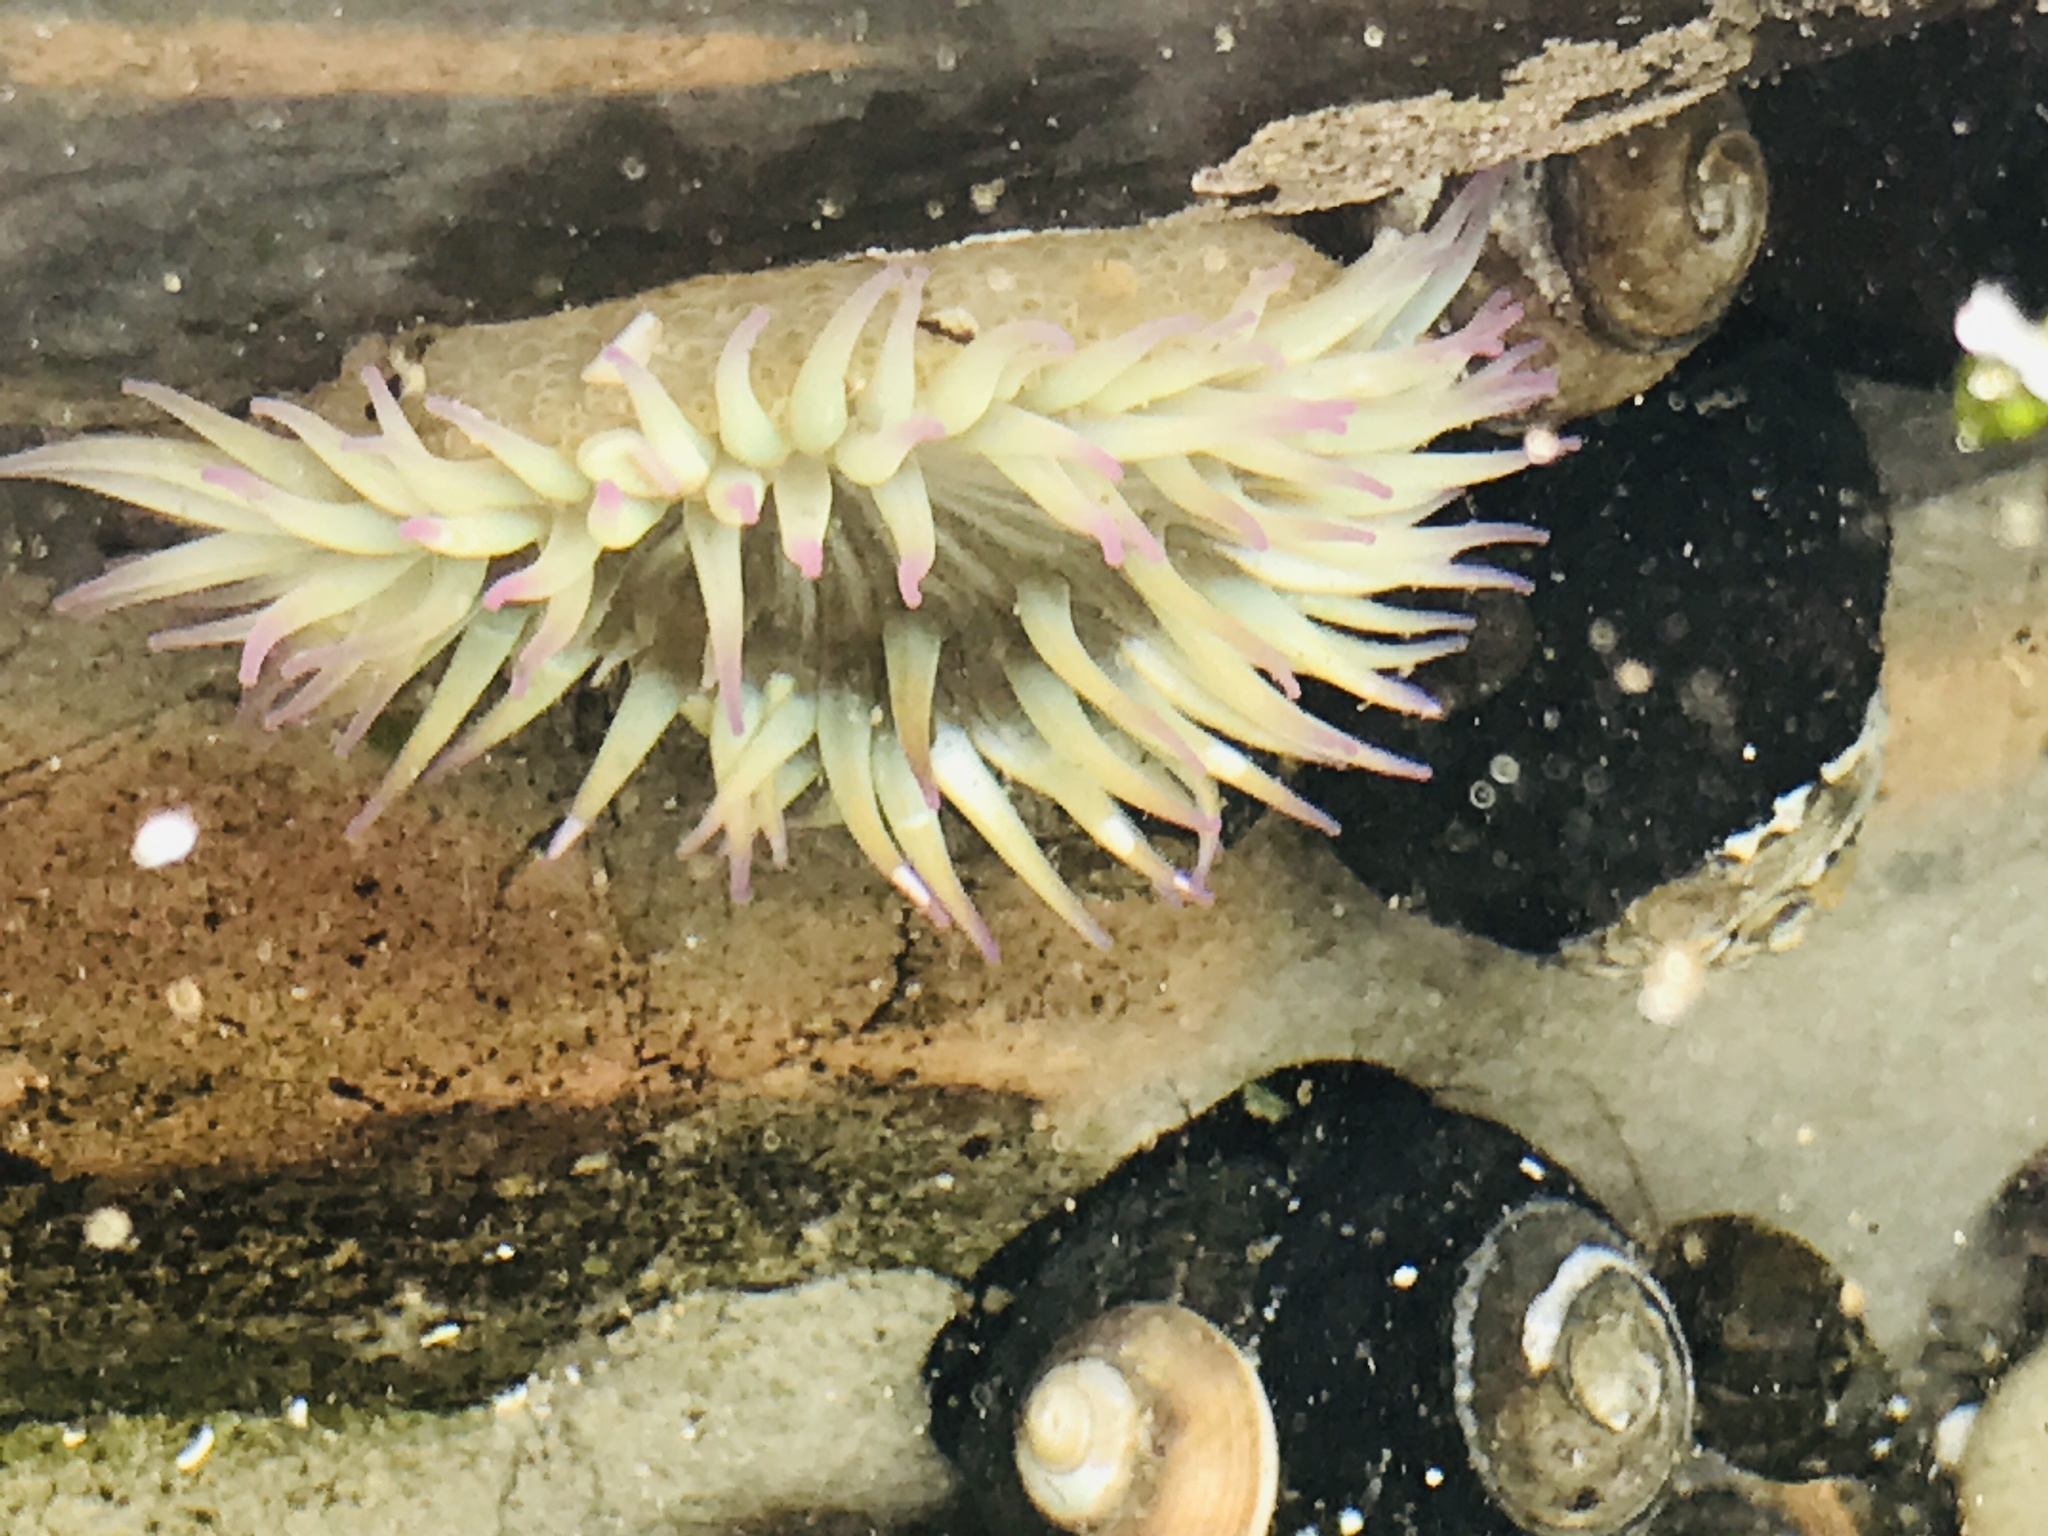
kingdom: Animalia
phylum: Cnidaria
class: Anthozoa
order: Actiniaria
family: Actiniidae
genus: Anthopleura
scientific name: Anthopleura elegantissima
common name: Clonal anemone
